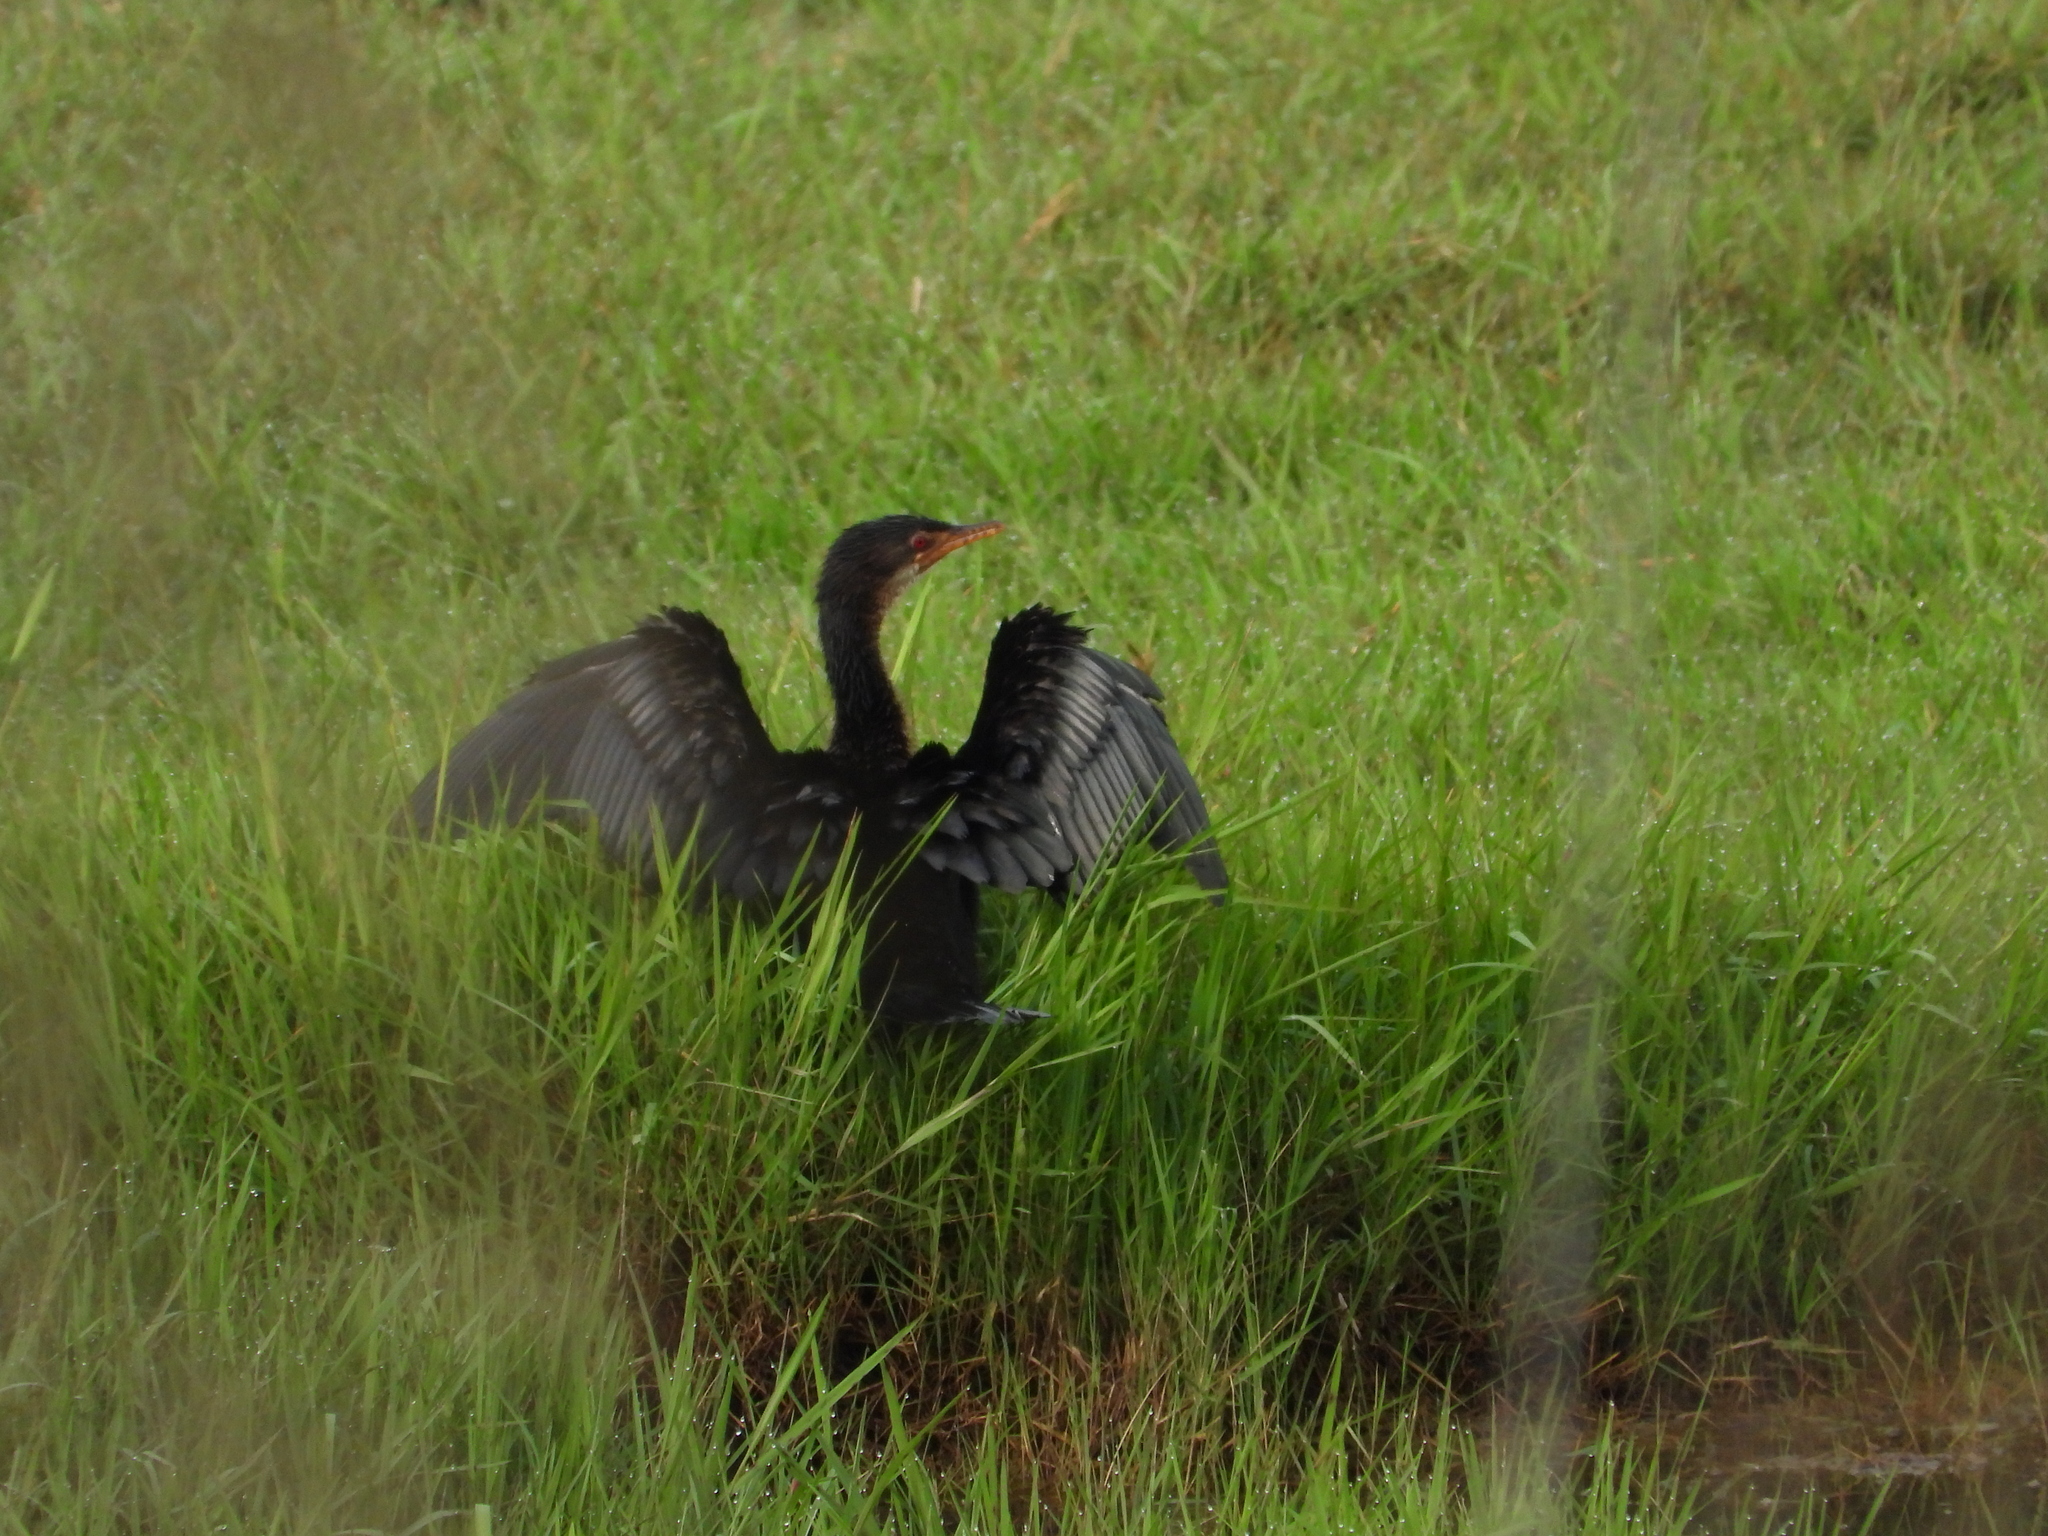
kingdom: Animalia
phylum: Chordata
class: Aves
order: Suliformes
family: Phalacrocoracidae
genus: Microcarbo
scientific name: Microcarbo africanus
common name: Long-tailed cormorant
